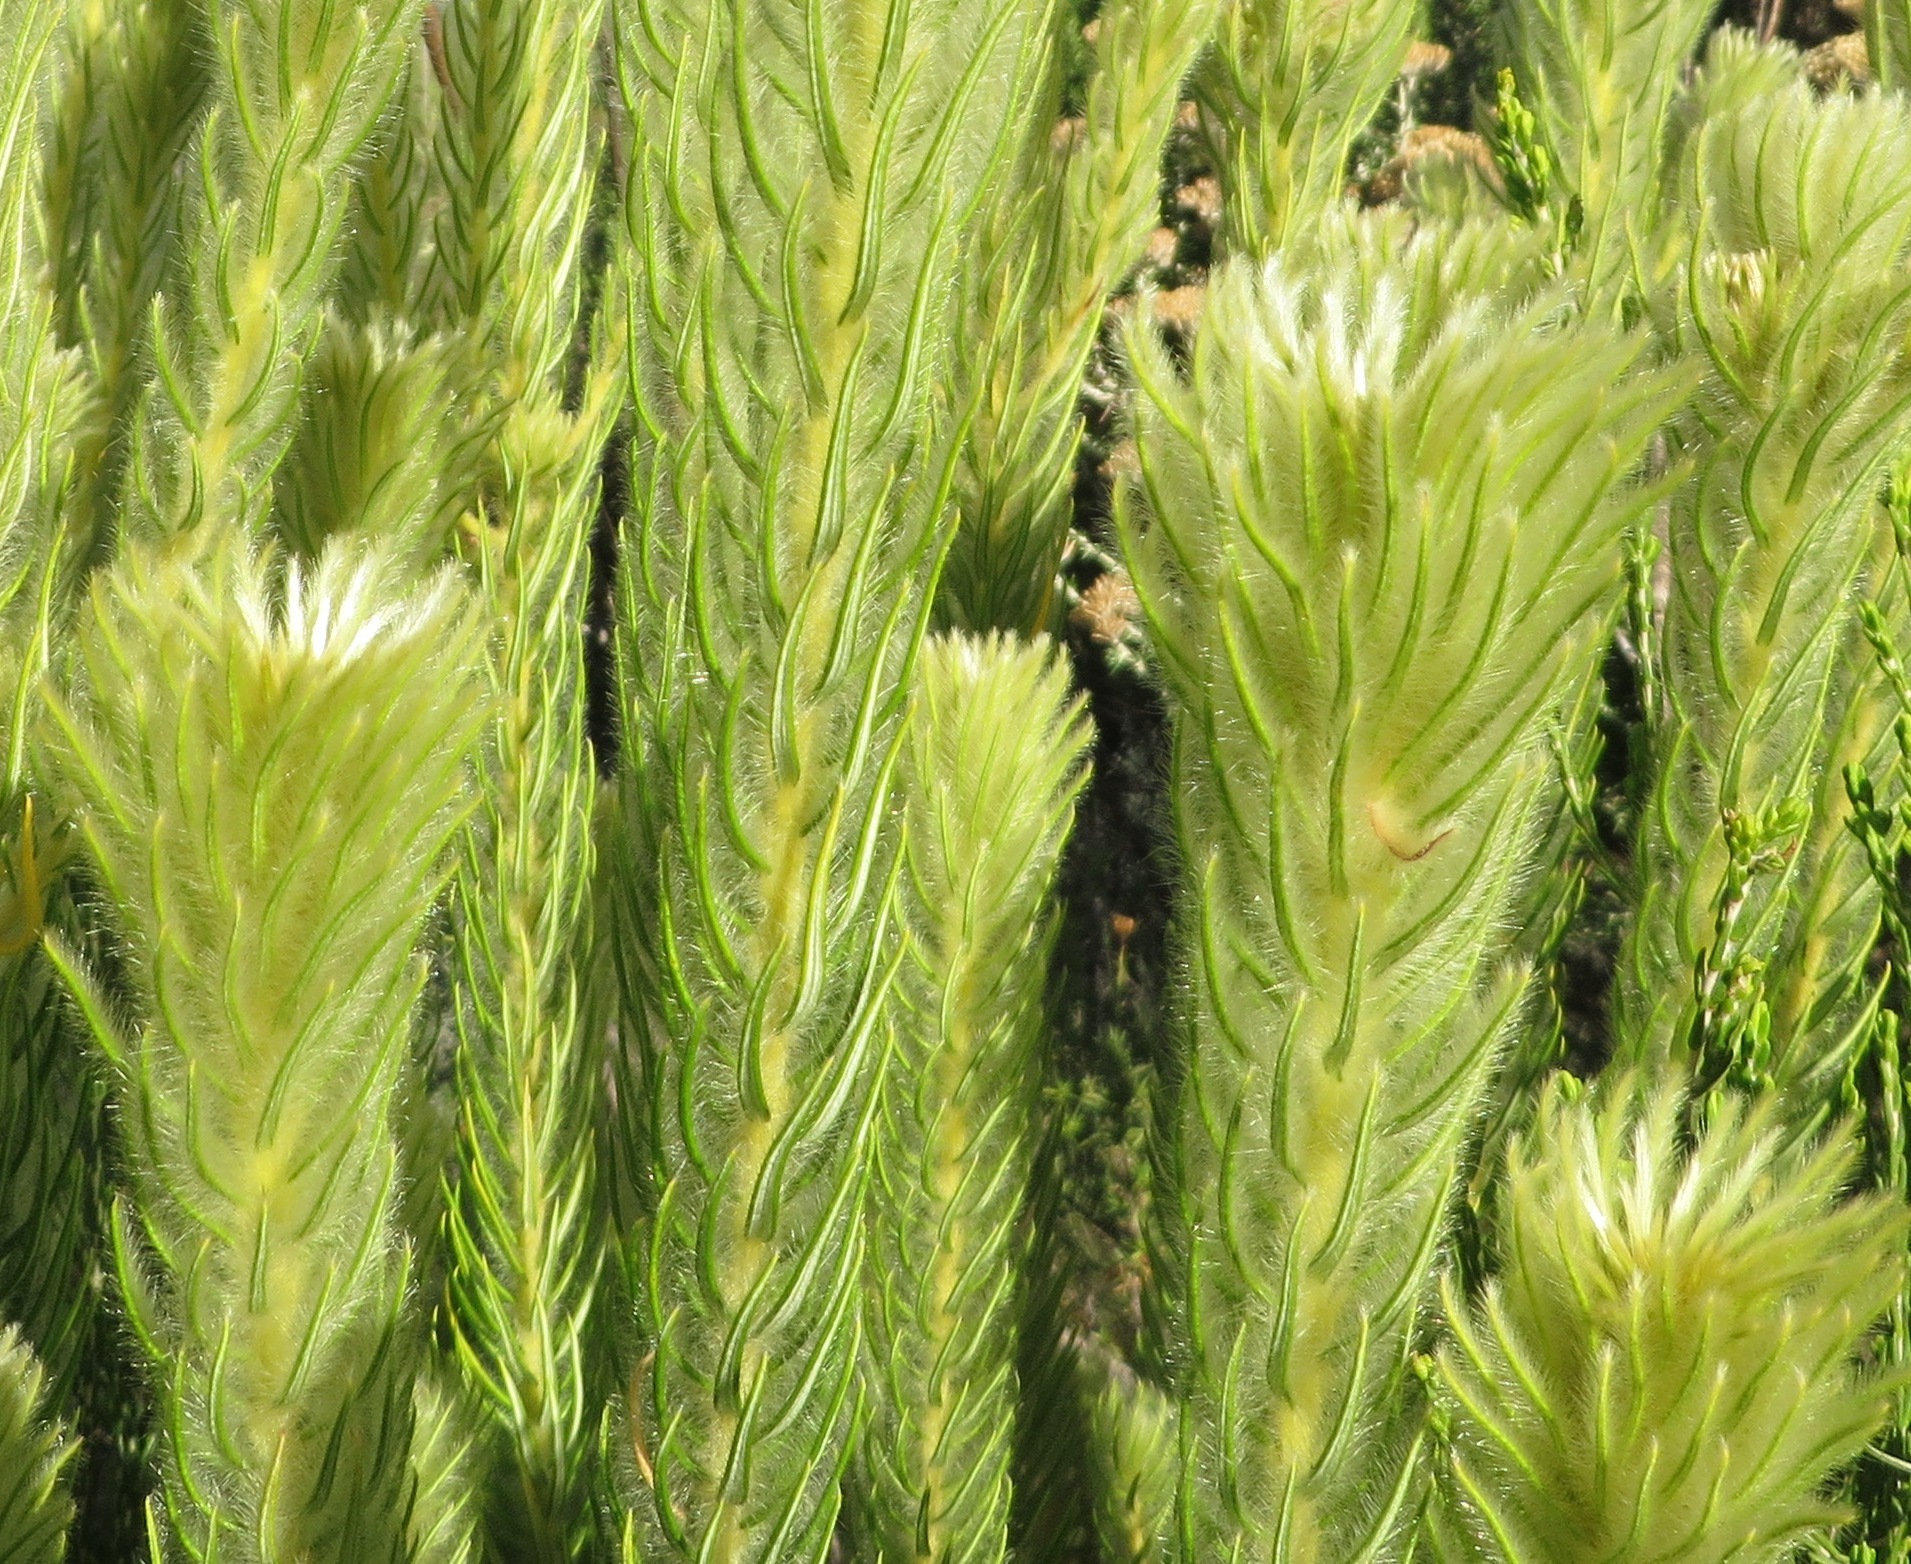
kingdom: Plantae
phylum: Tracheophyta
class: Magnoliopsida
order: Rosales
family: Rhamnaceae
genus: Phylica
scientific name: Phylica pubescens
